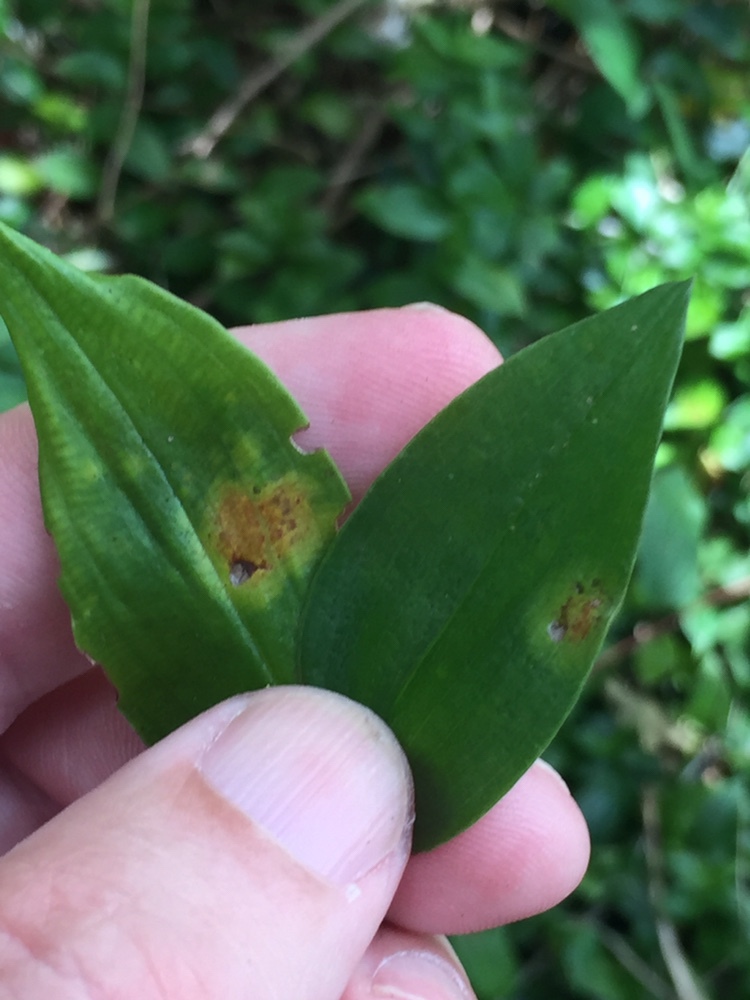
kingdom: Fungi
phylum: Basidiomycota
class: Exobasidiomycetes
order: Exobasidiales
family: Brachybasidiaceae
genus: Kordyana
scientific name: Kordyana brasiliensis
